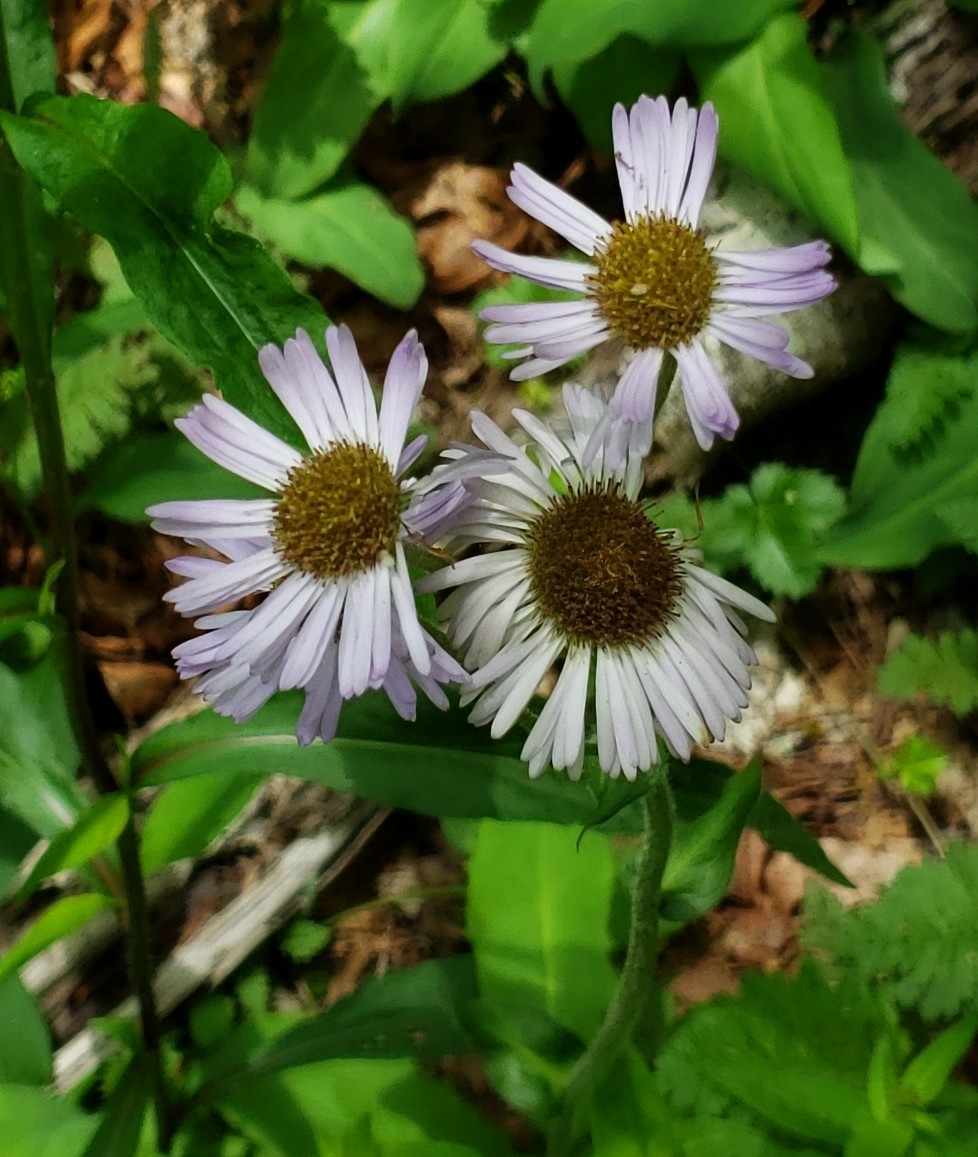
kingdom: Plantae
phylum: Tracheophyta
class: Magnoliopsida
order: Asterales
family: Asteraceae
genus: Erigeron
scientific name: Erigeron pulchellus
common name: Hairy fleabane
